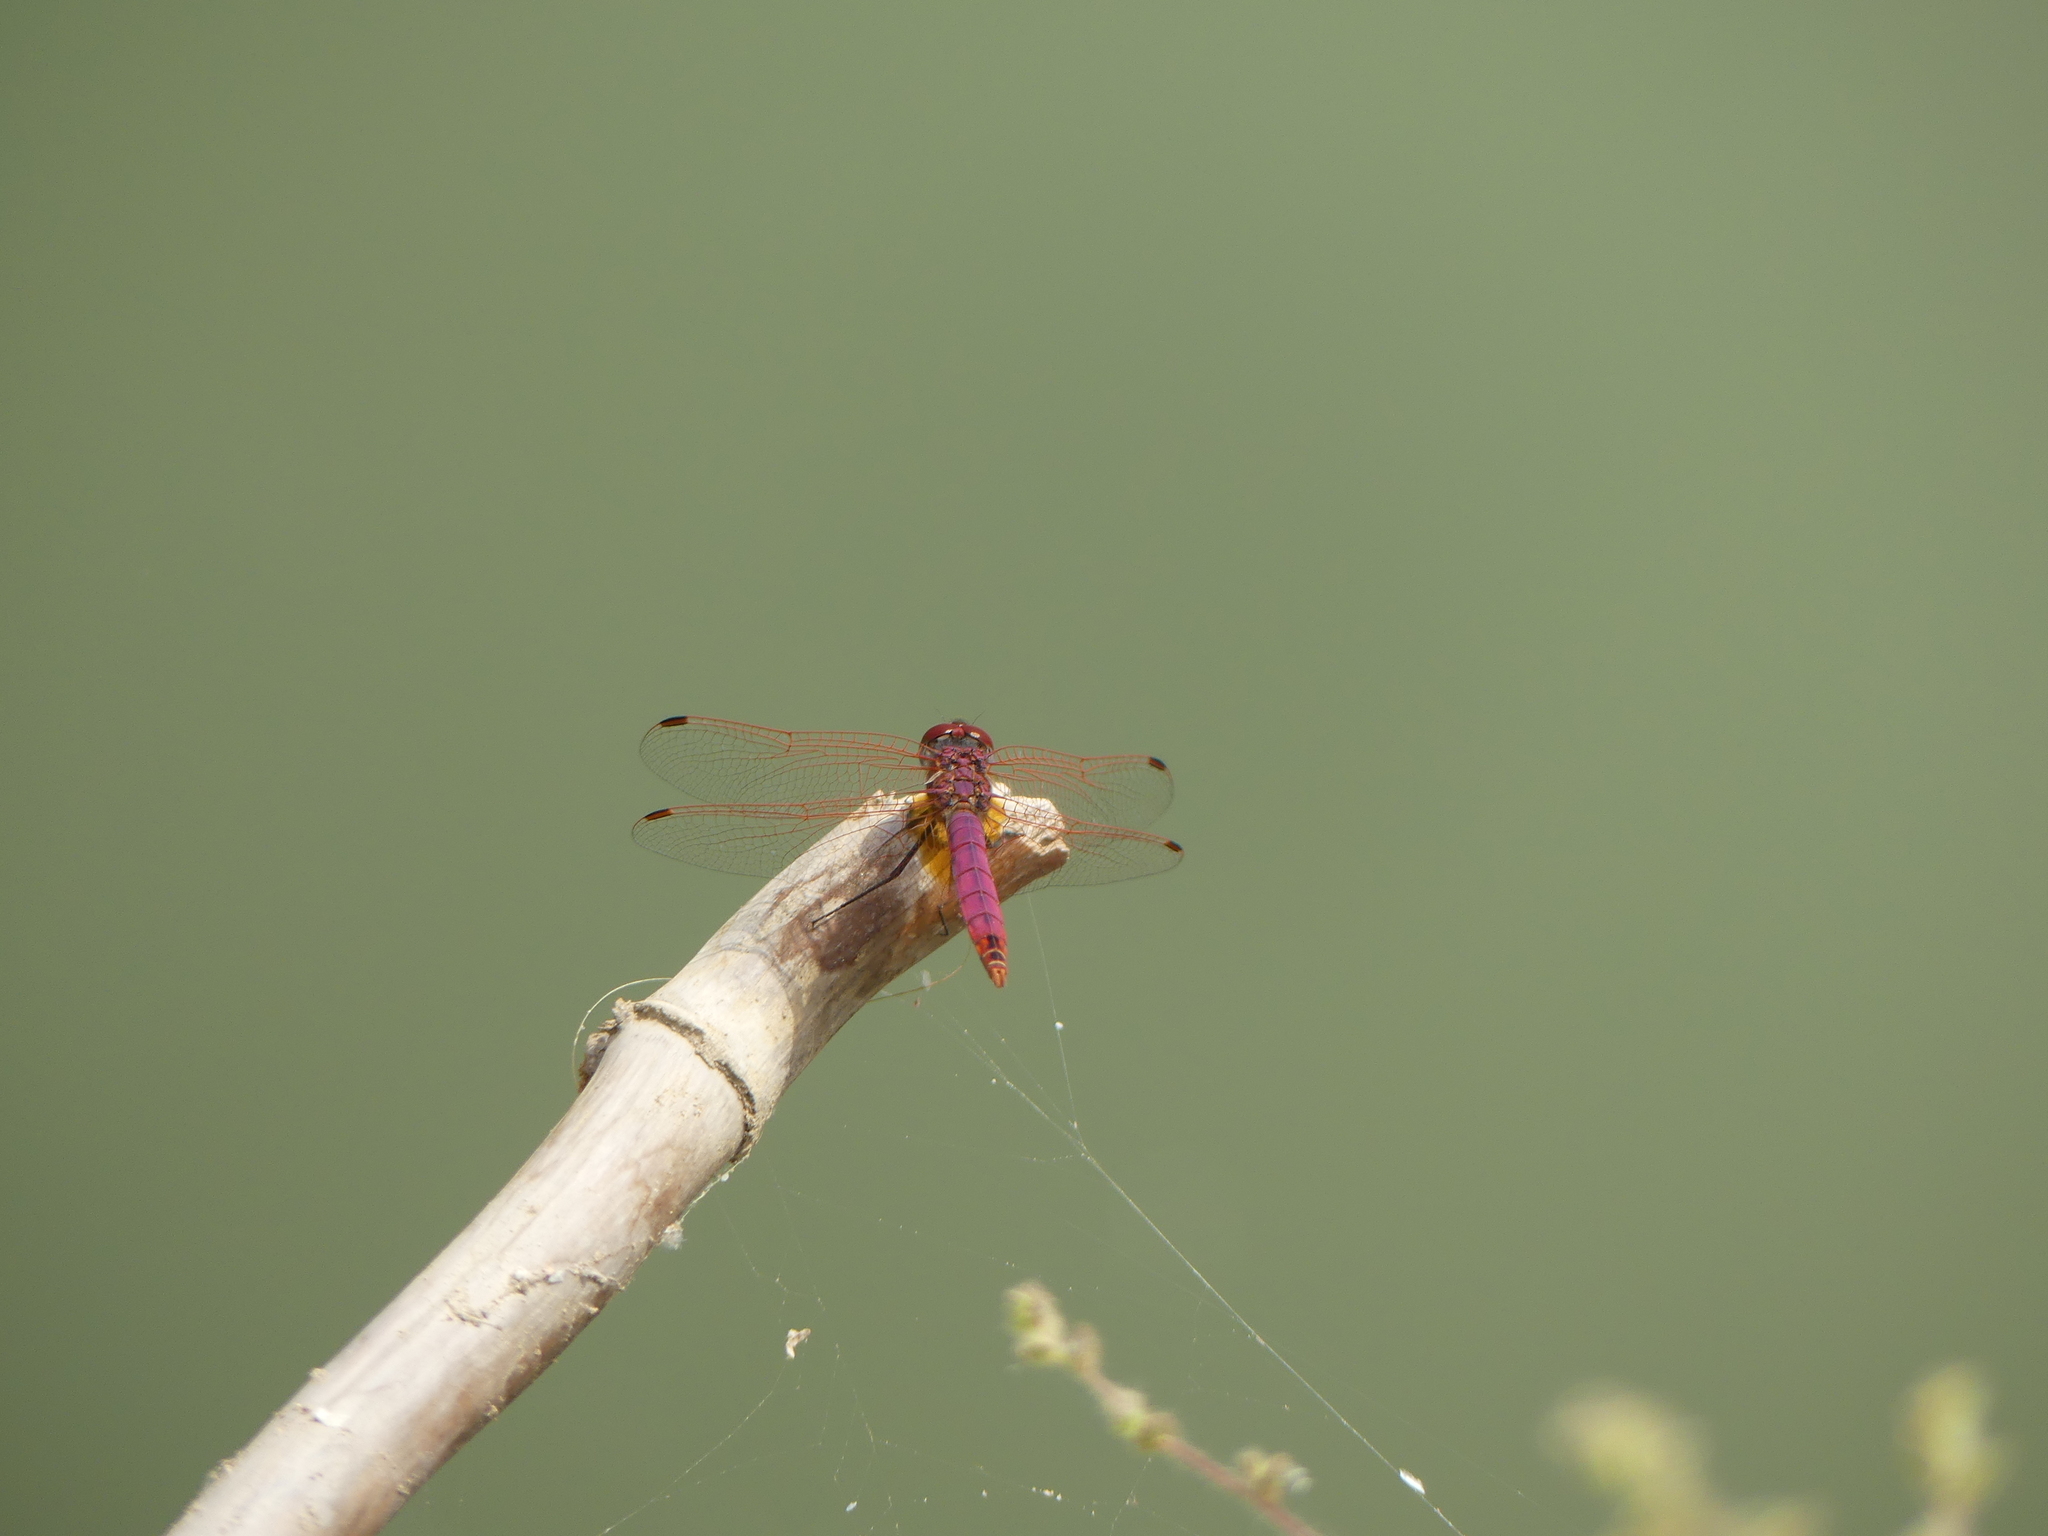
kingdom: Animalia
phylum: Arthropoda
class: Insecta
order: Odonata
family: Libellulidae
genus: Trithemis
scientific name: Trithemis annulata
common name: Violet dropwing
